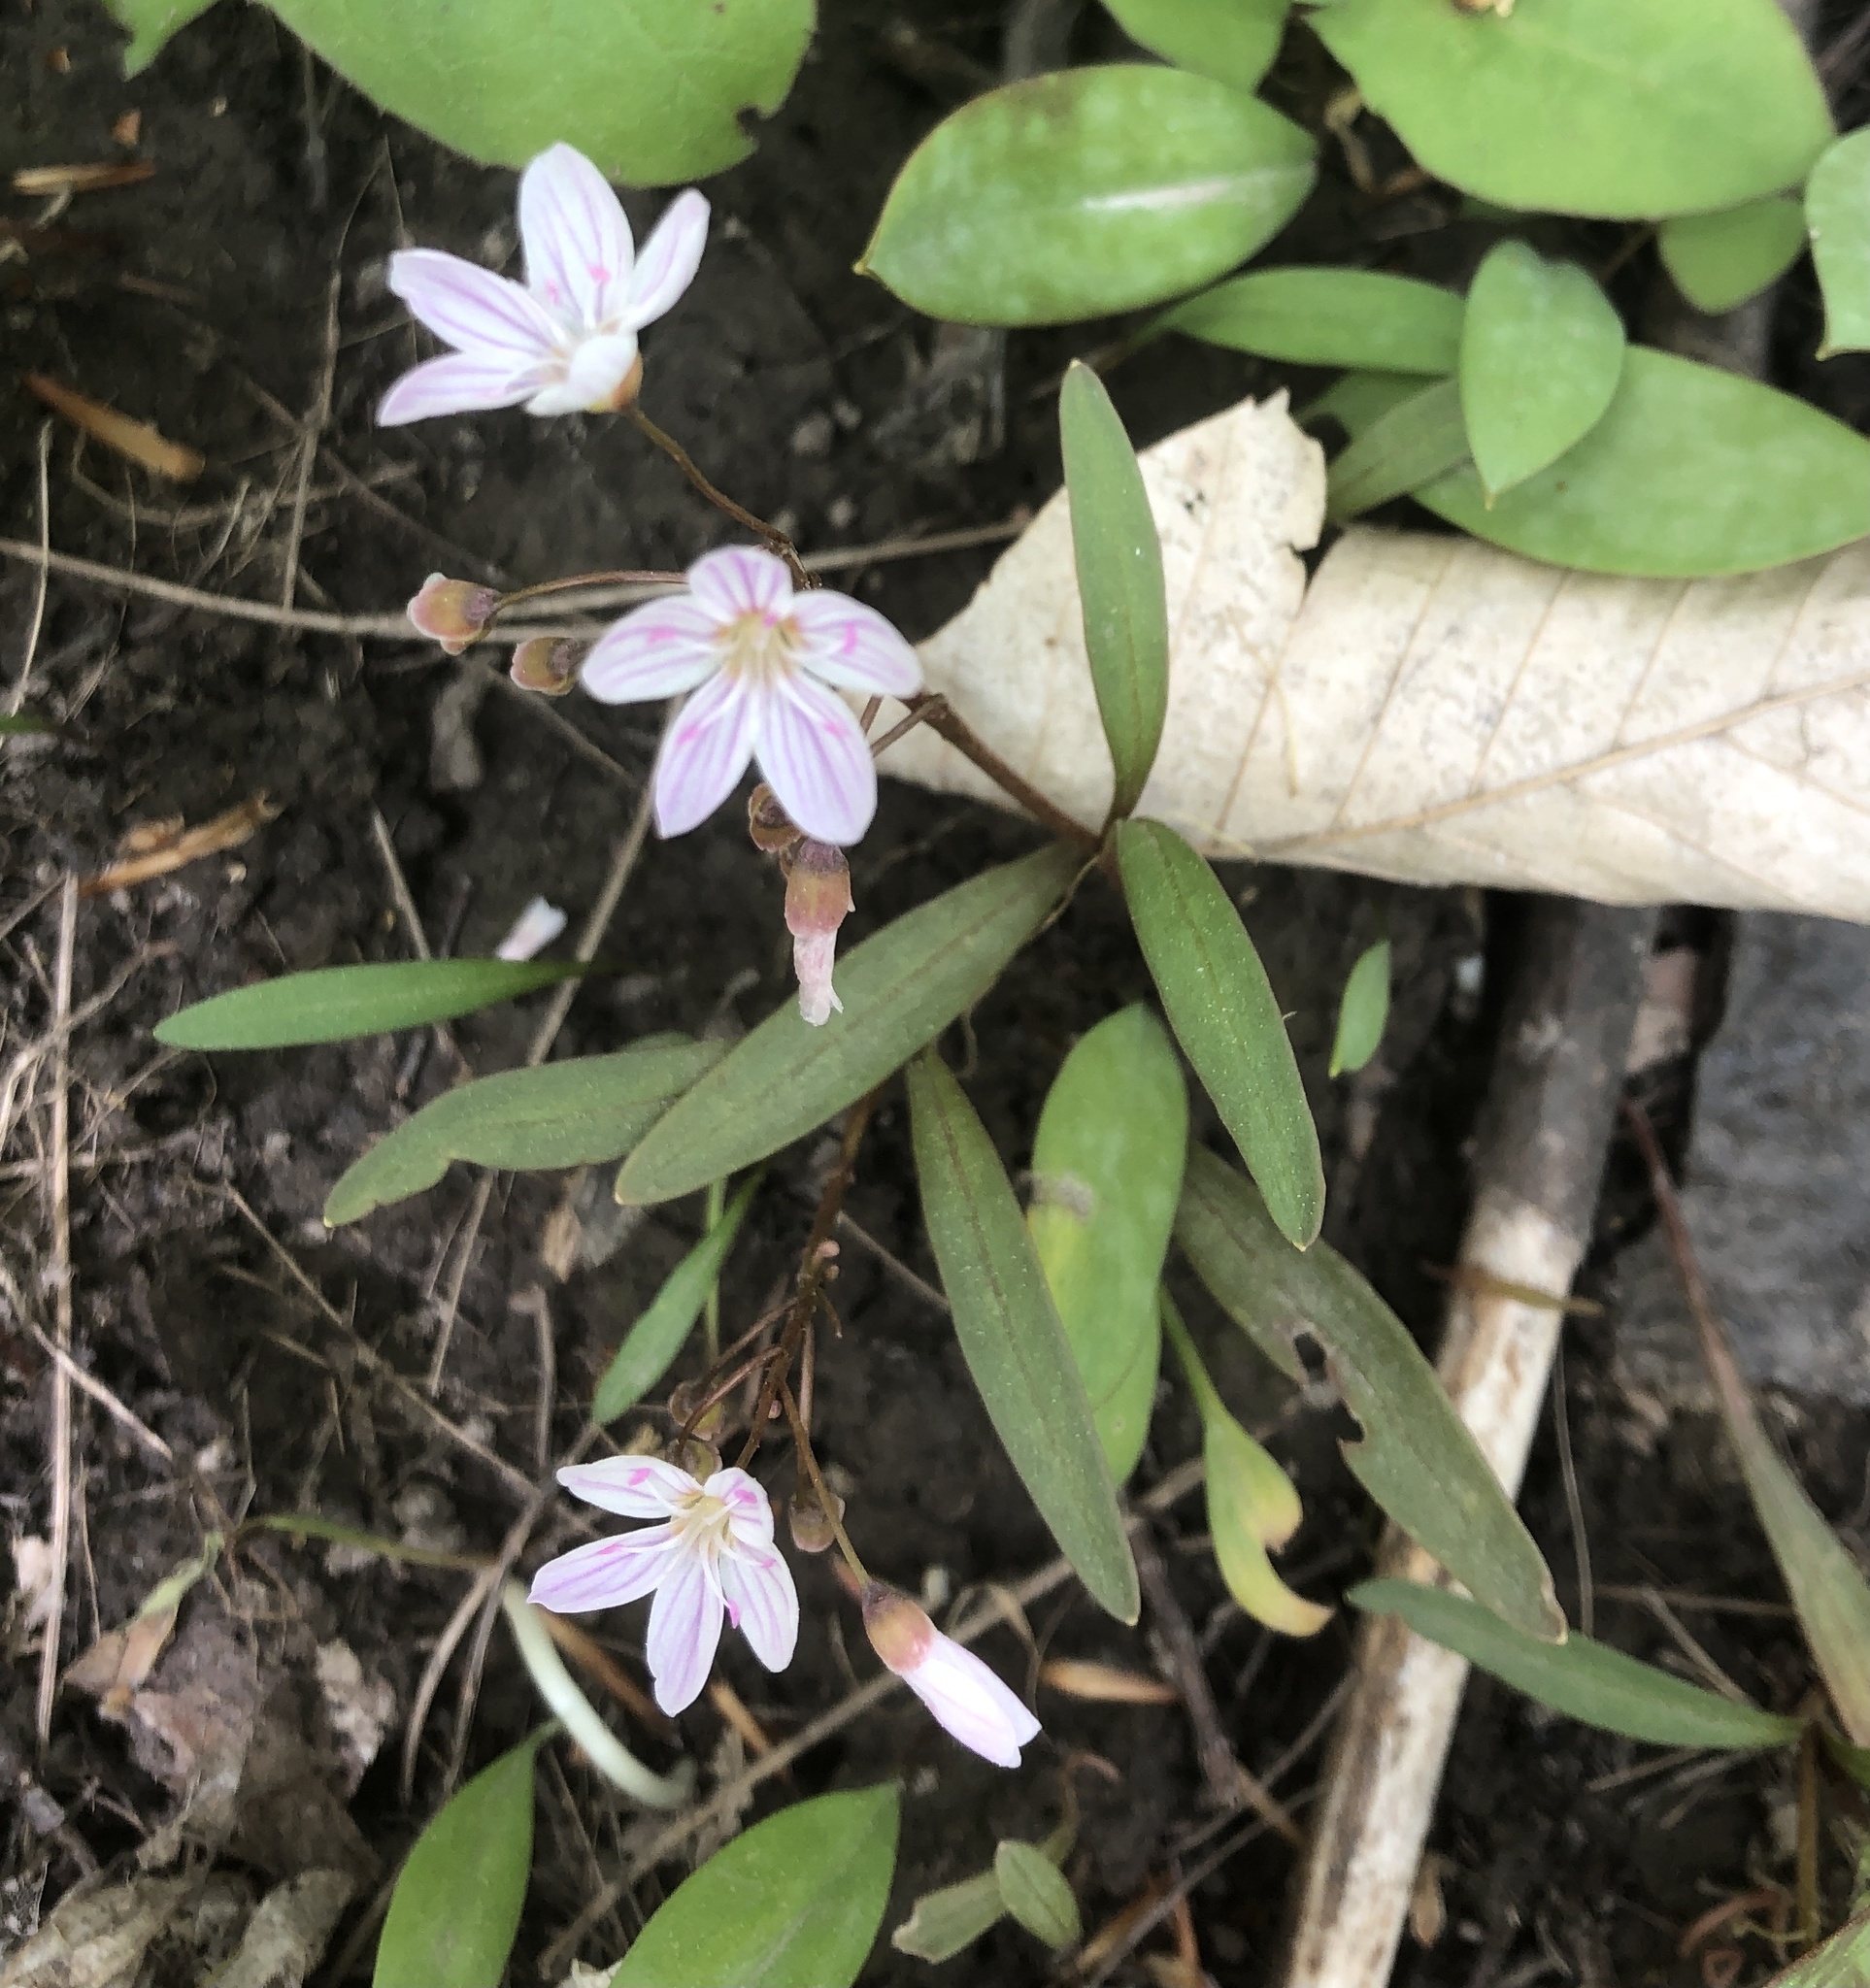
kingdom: Plantae
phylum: Tracheophyta
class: Magnoliopsida
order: Caryophyllales
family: Montiaceae
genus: Claytonia
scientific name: Claytonia caroliniana
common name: Carolina spring beauty
